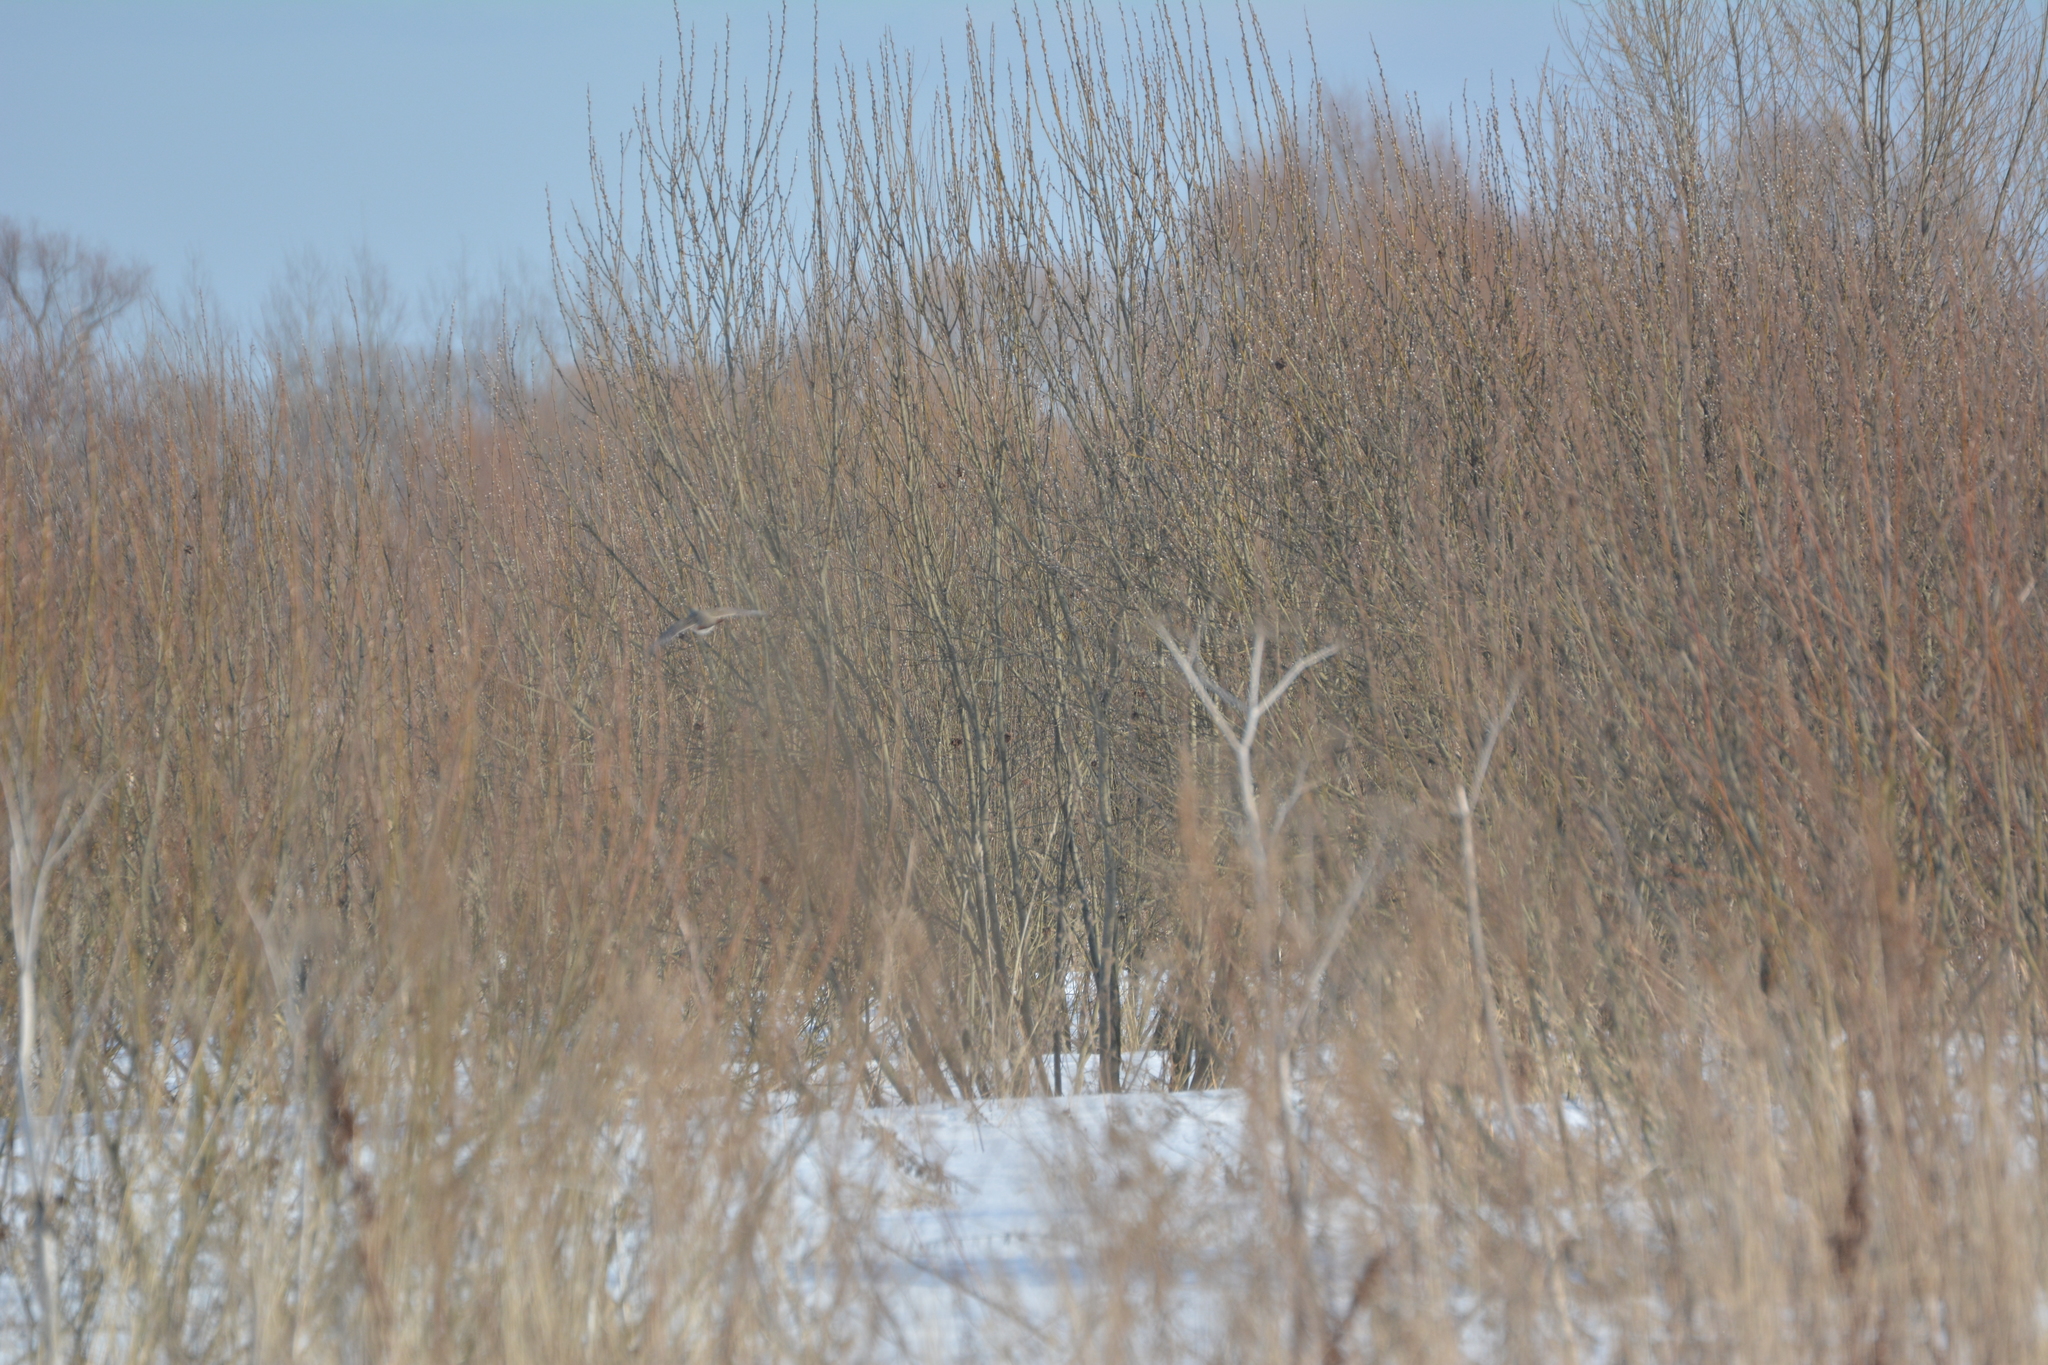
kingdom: Animalia
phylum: Chordata
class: Aves
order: Galliformes
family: Phasianidae
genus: Perdix
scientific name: Perdix perdix
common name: Grey partridge
